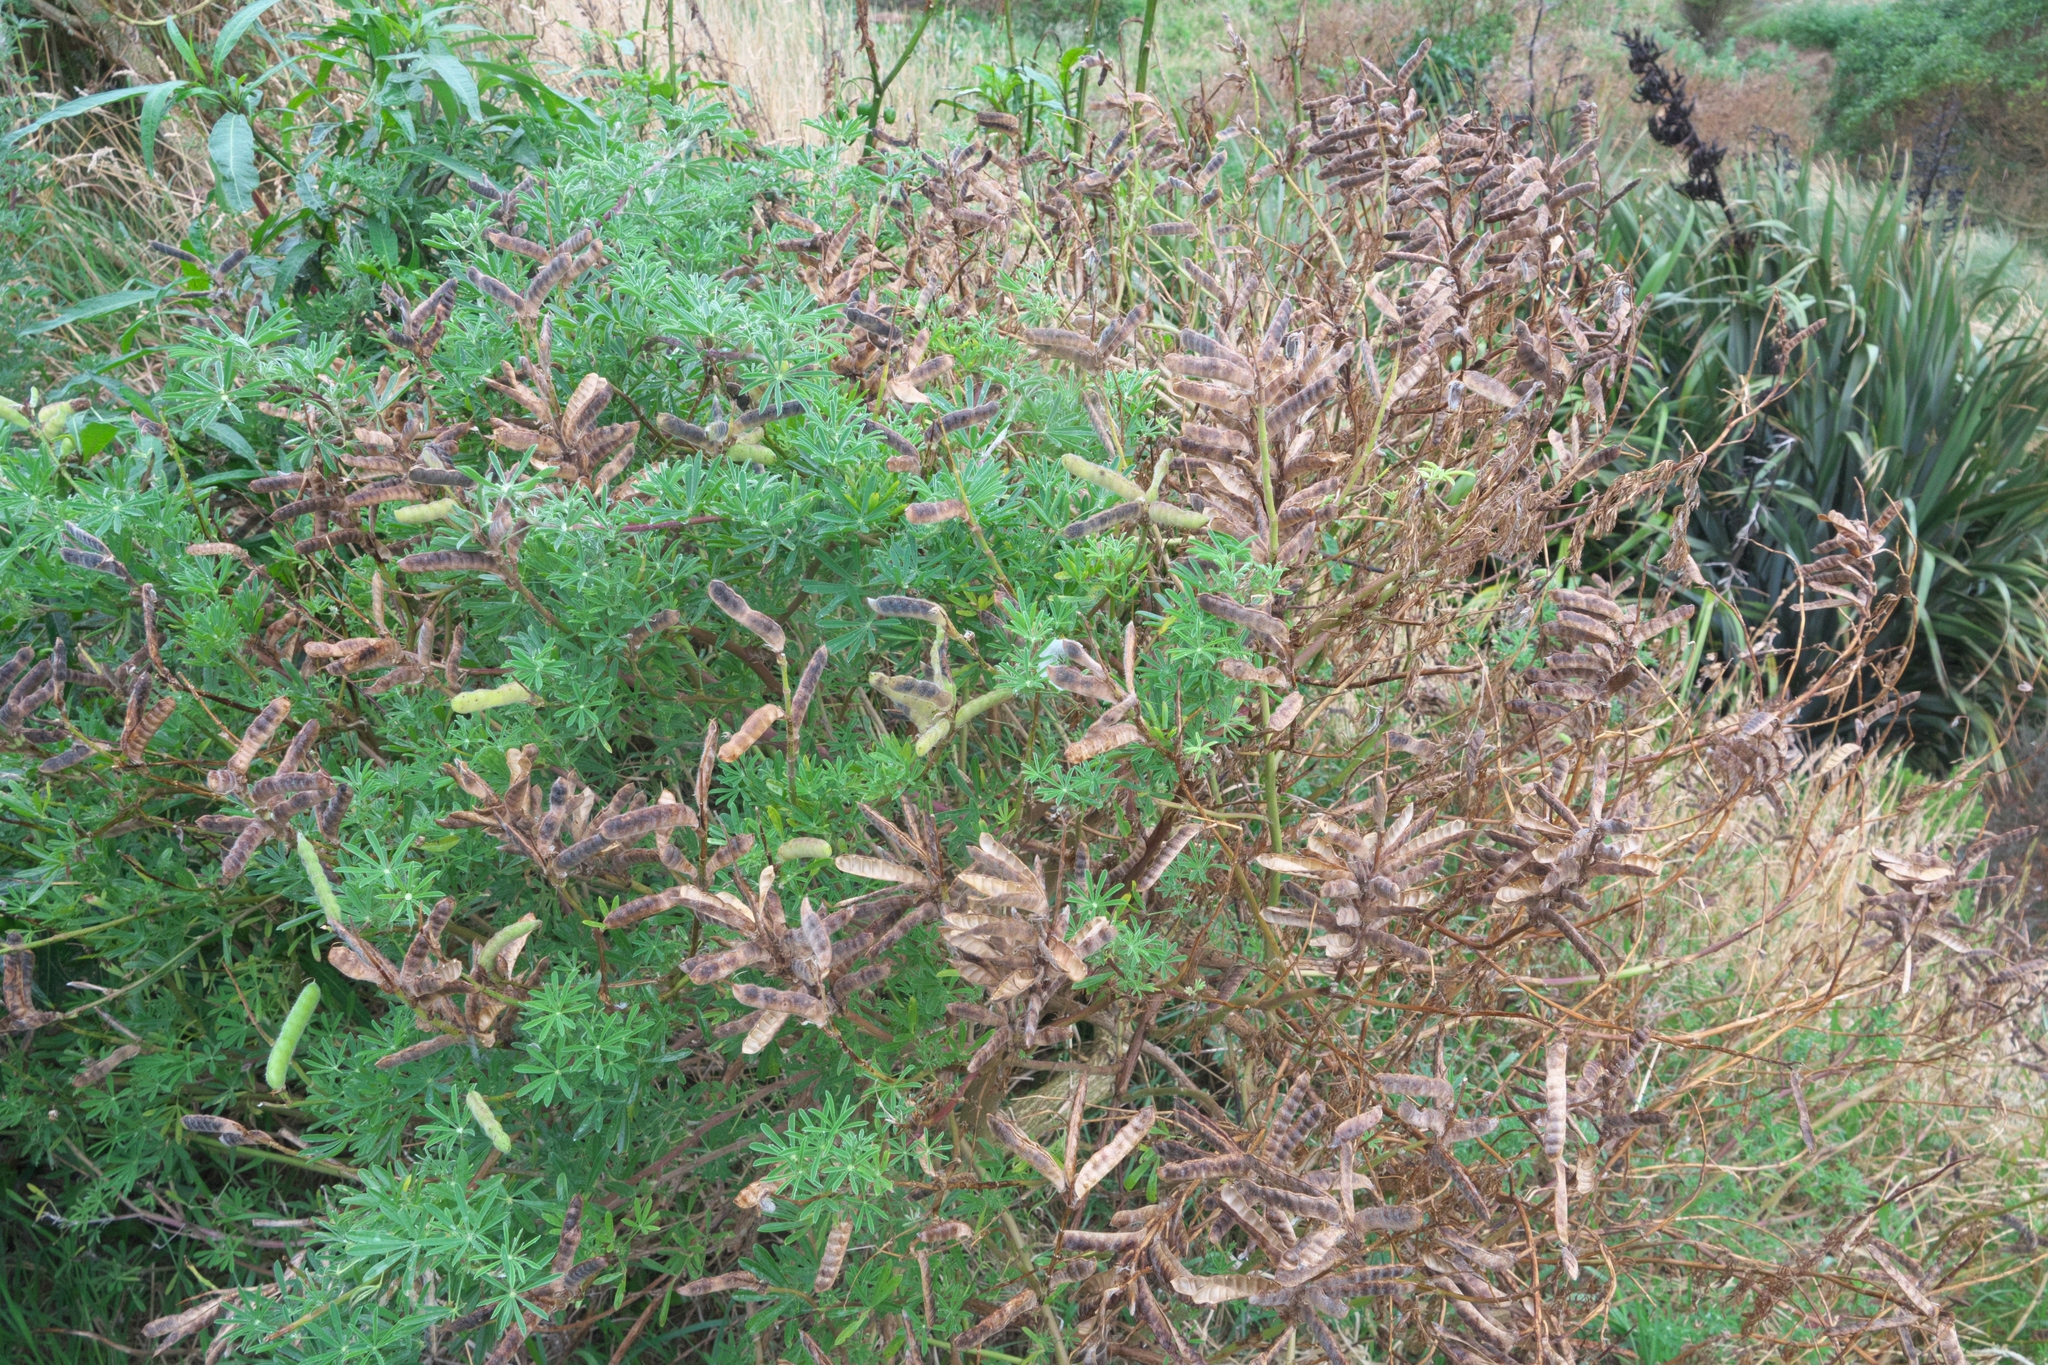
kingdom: Plantae
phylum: Tracheophyta
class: Magnoliopsida
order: Fabales
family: Fabaceae
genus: Lupinus
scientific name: Lupinus arboreus
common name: Yellow bush lupine
